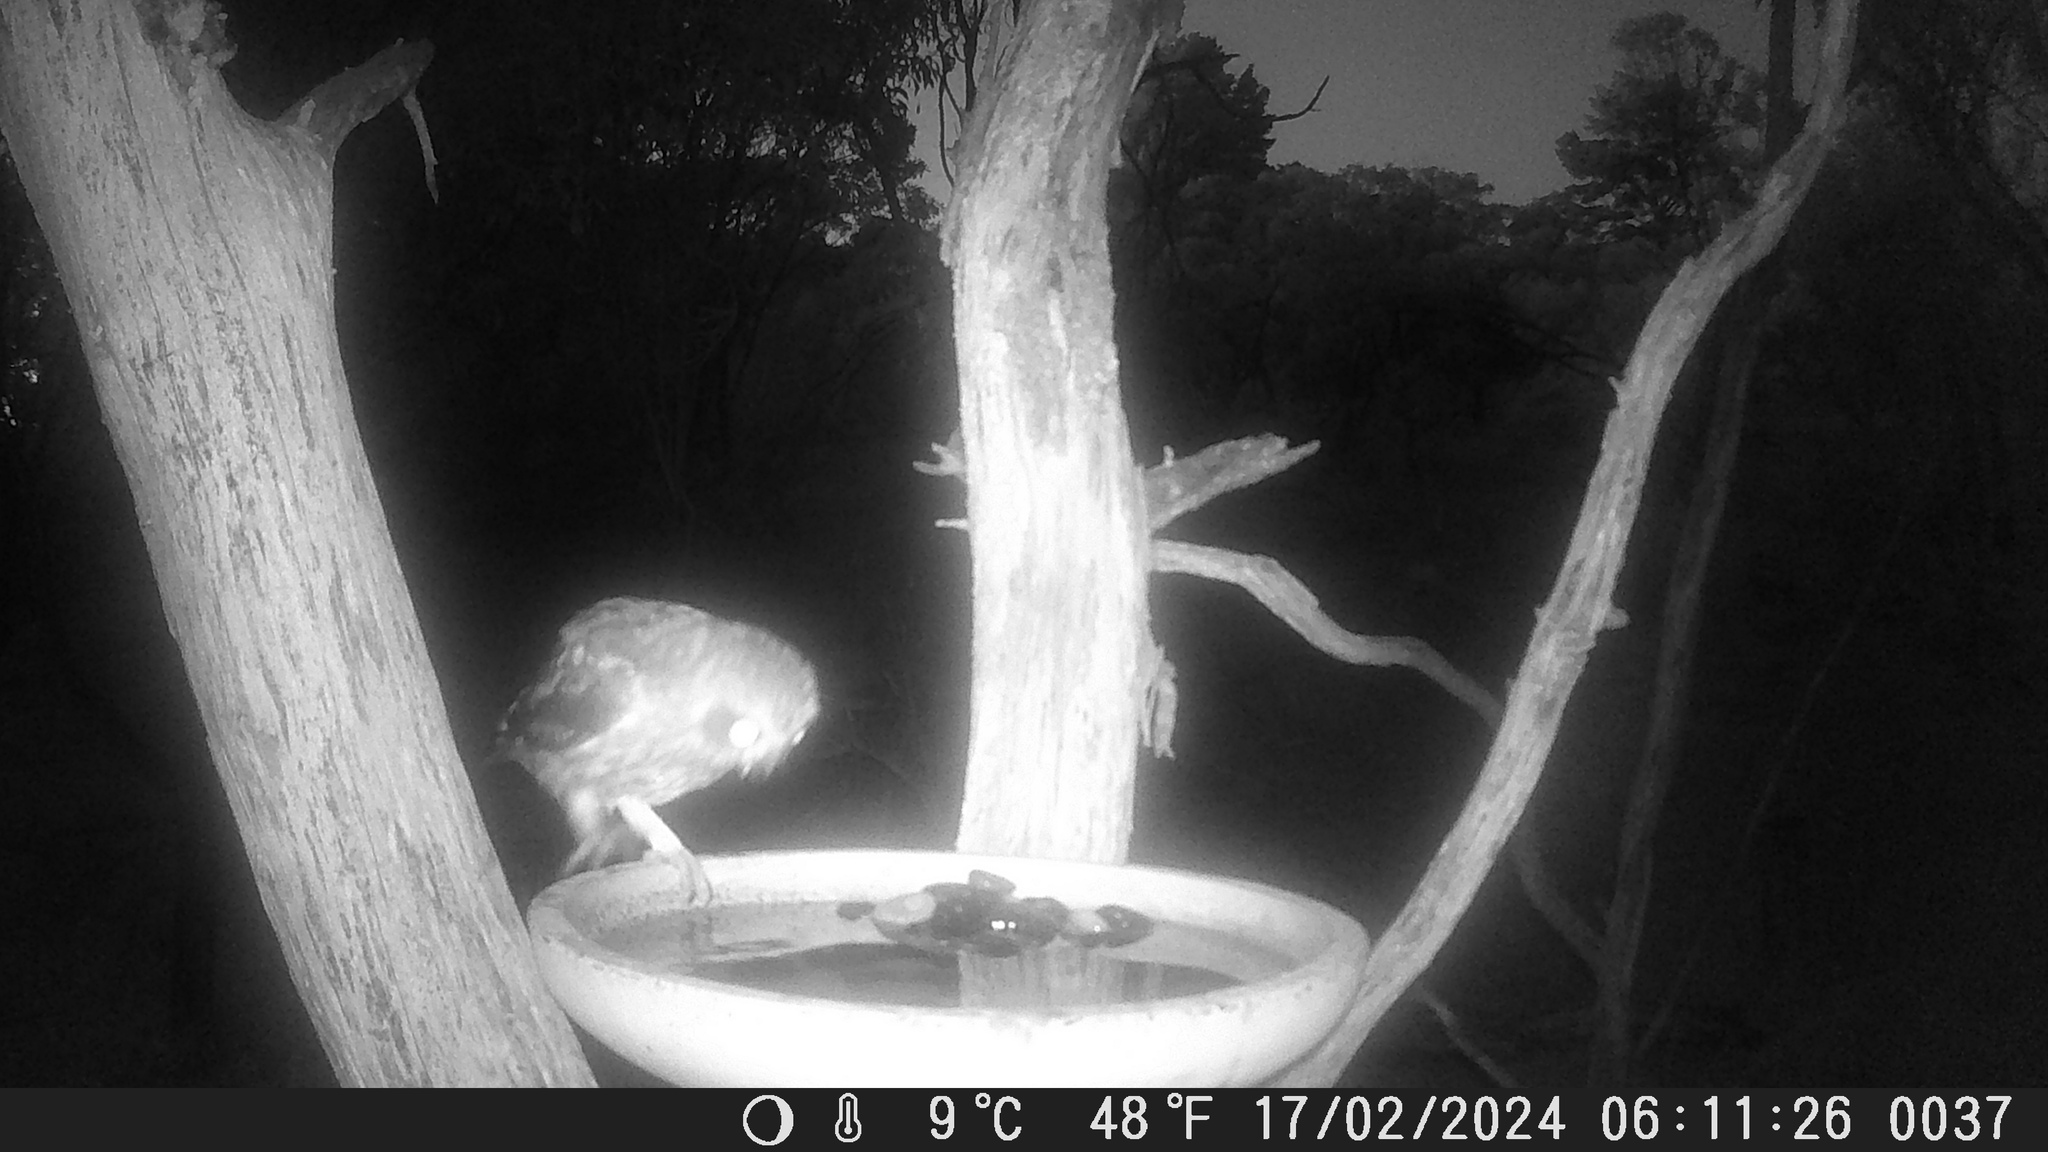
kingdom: Animalia
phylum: Chordata
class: Aves
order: Strigiformes
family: Strigidae
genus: Ninox
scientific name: Ninox boobook
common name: Southern boobook
